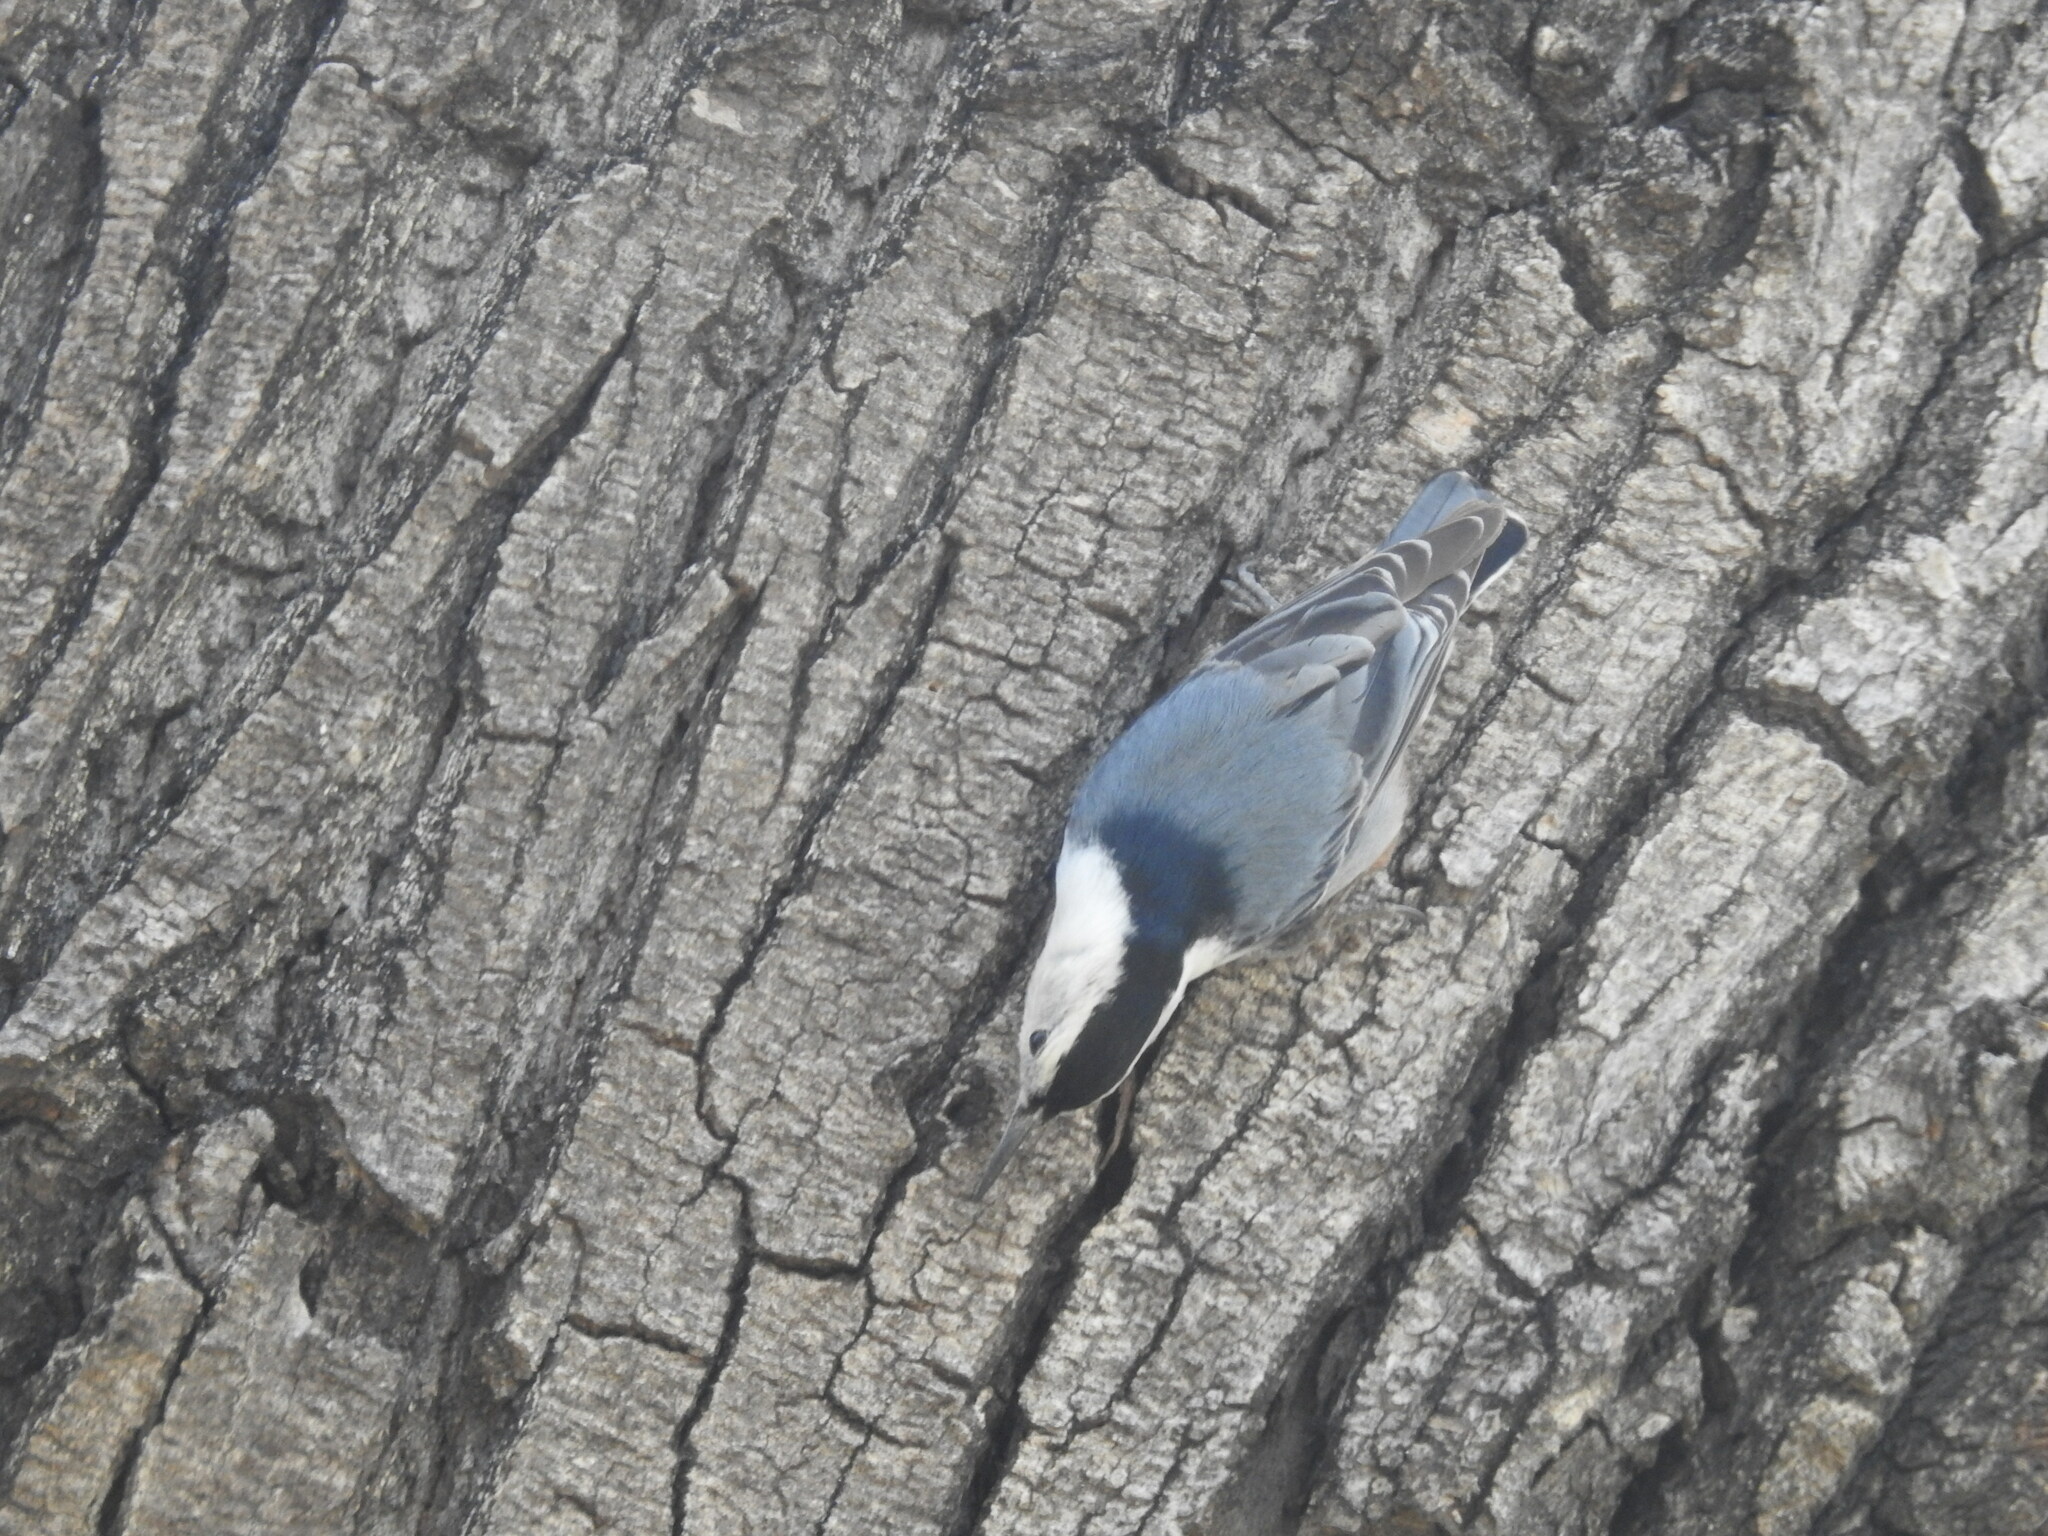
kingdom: Animalia
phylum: Chordata
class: Aves
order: Passeriformes
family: Sittidae
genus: Sitta
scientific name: Sitta carolinensis
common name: White-breasted nuthatch
